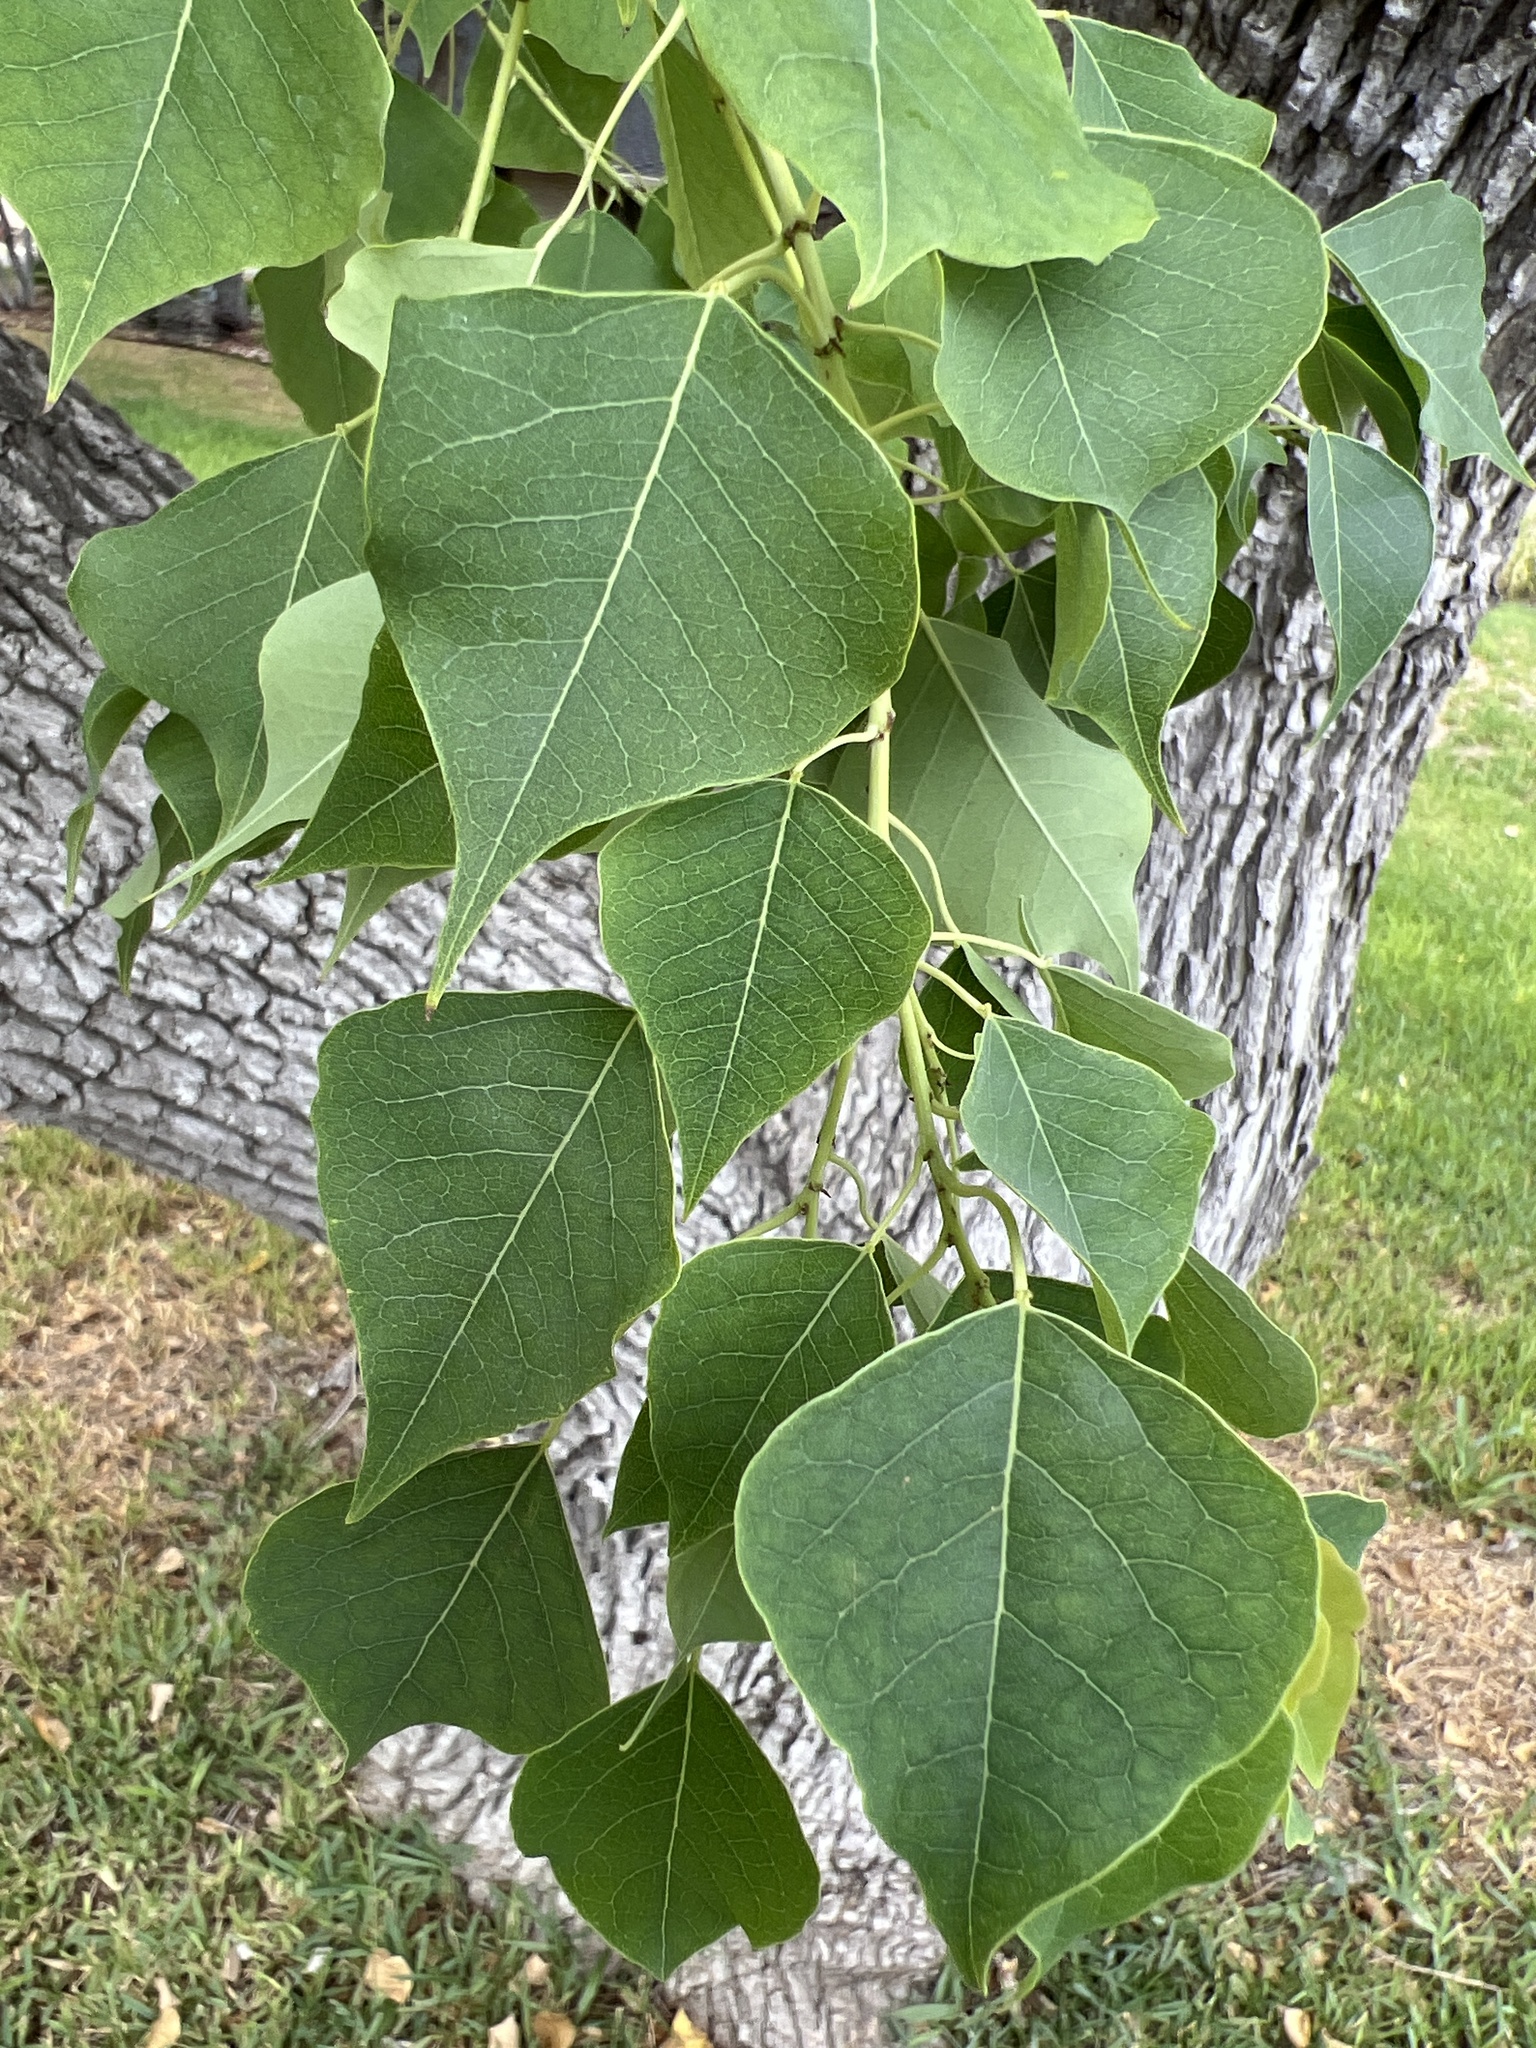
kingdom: Plantae
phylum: Tracheophyta
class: Magnoliopsida
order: Malpighiales
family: Euphorbiaceae
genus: Triadica
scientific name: Triadica sebifera
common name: Chinese tallow
